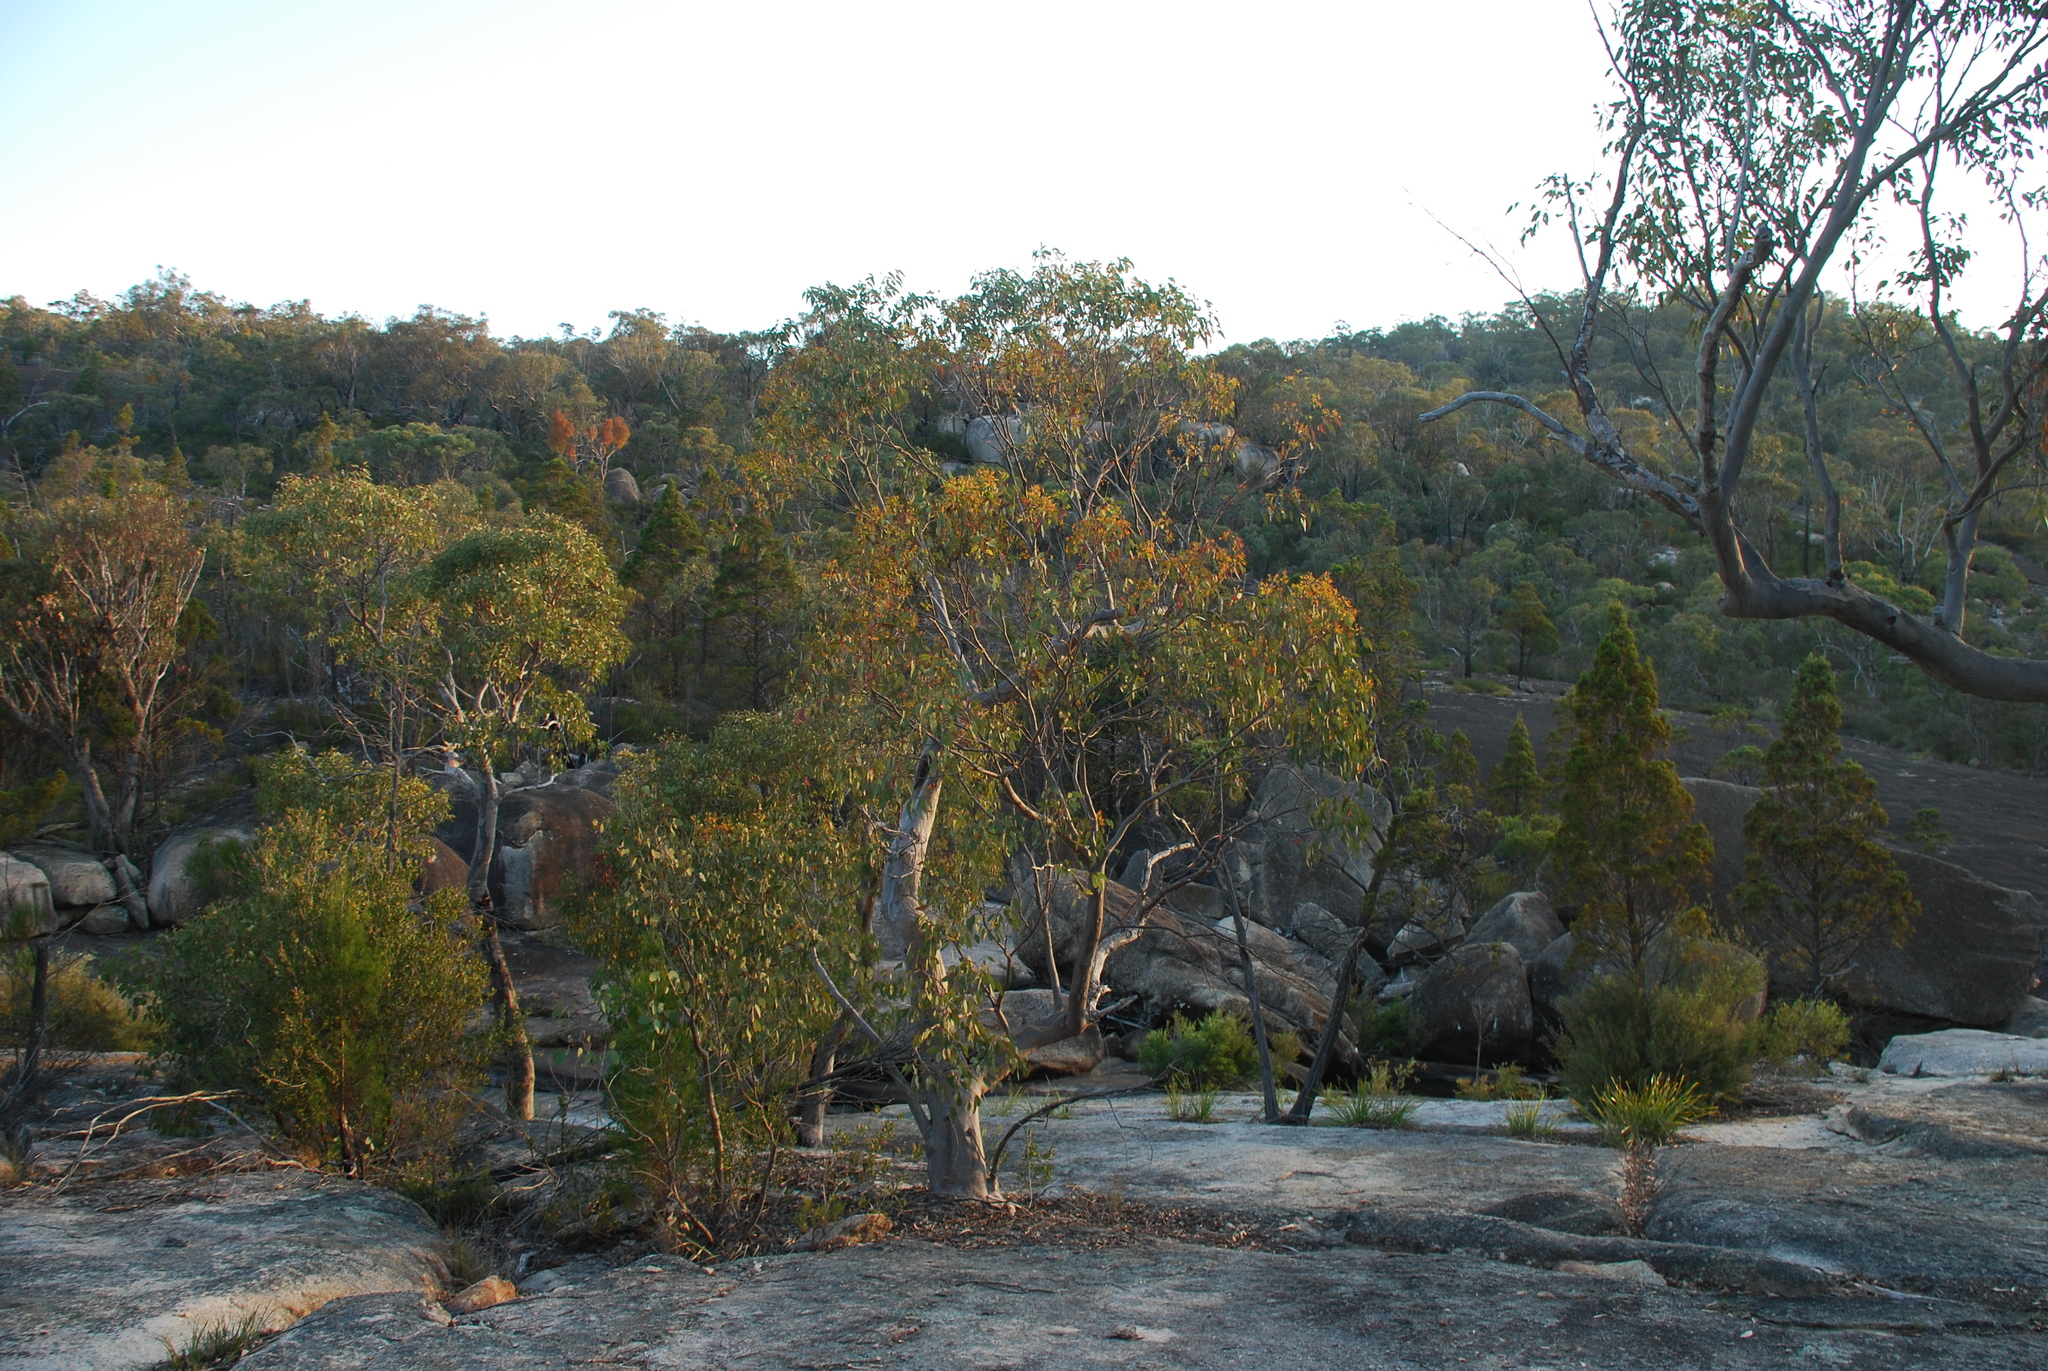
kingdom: Plantae
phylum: Tracheophyta
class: Magnoliopsida
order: Myrtales
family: Myrtaceae
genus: Eucalyptus
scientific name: Eucalyptus prava
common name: Orange gum
